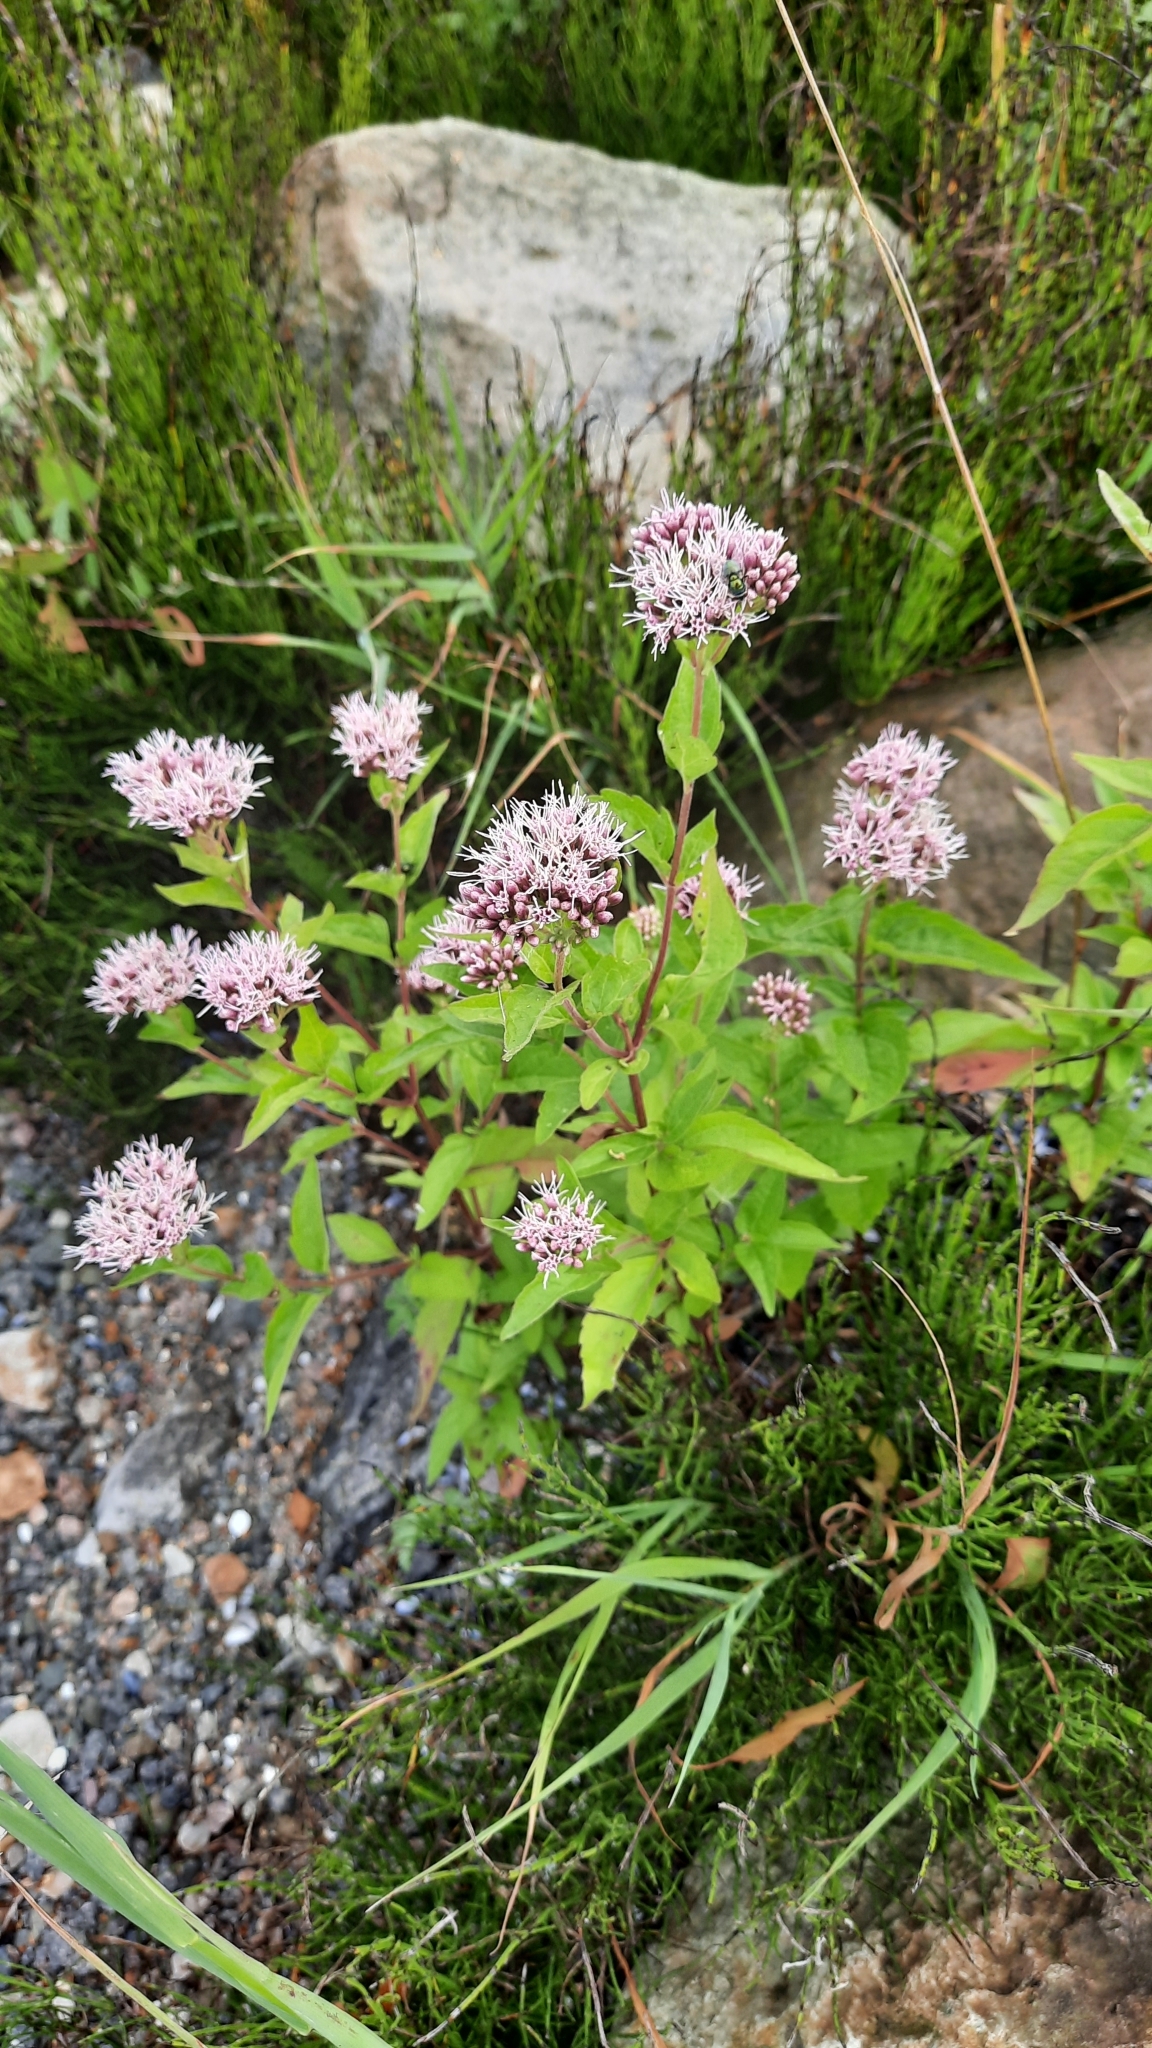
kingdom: Plantae
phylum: Tracheophyta
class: Magnoliopsida
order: Asterales
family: Asteraceae
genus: Eupatorium
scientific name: Eupatorium cannabinum
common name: Hemp-agrimony
